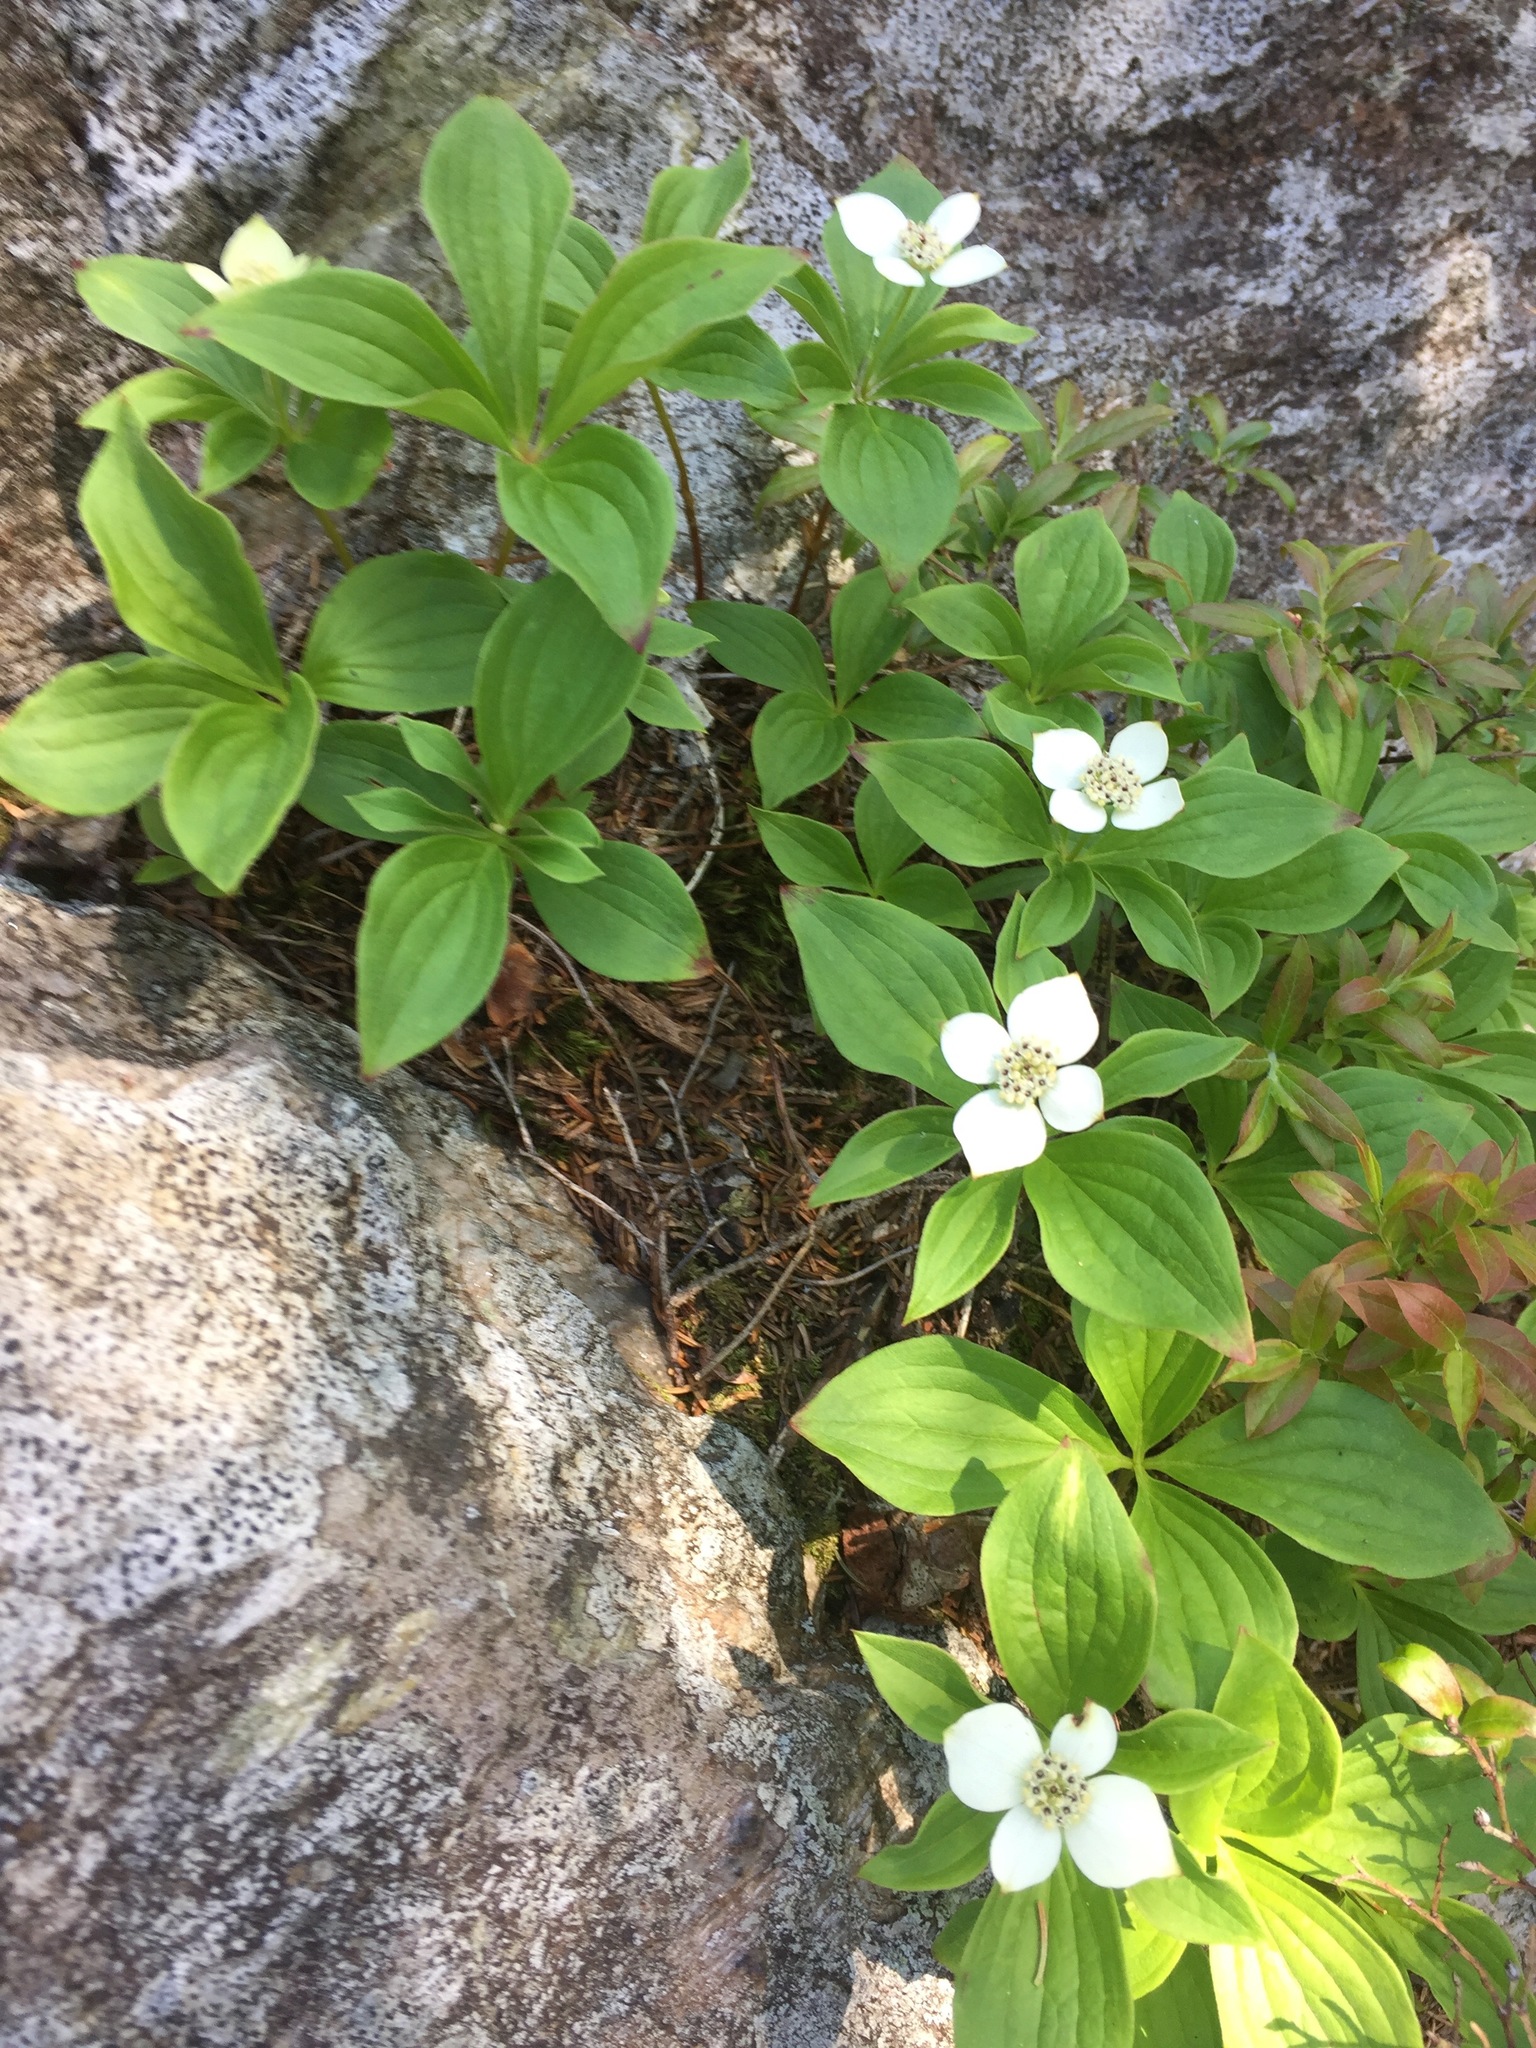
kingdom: Plantae
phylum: Tracheophyta
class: Magnoliopsida
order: Cornales
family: Cornaceae
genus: Cornus
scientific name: Cornus canadensis
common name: Creeping dogwood
